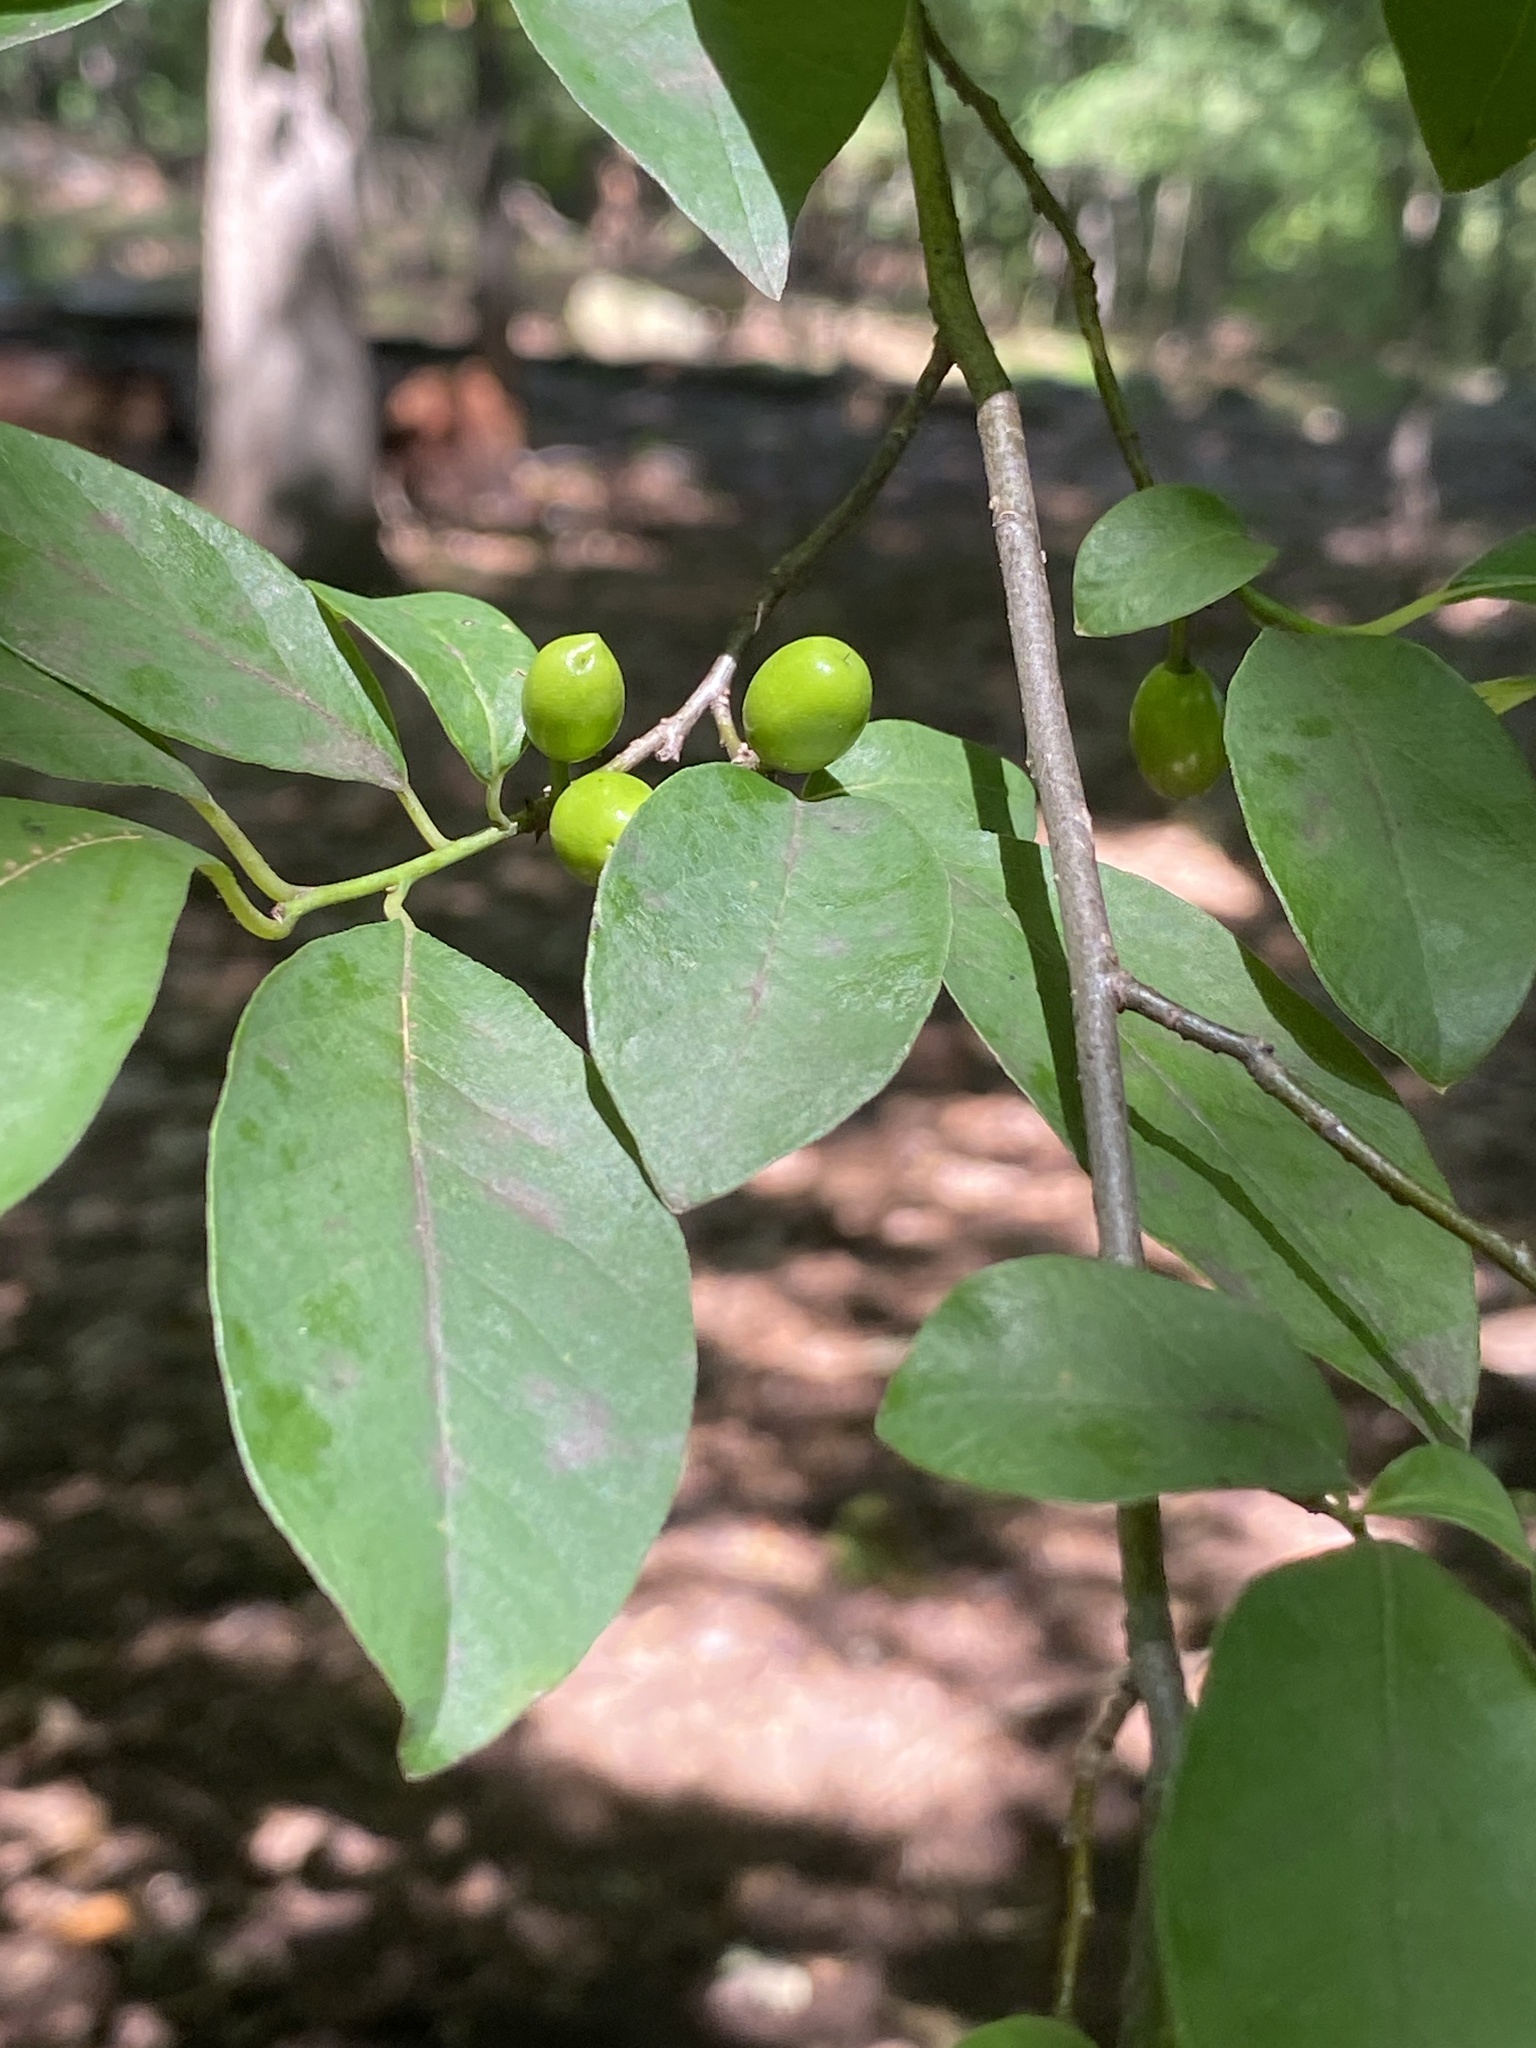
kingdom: Plantae
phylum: Tracheophyta
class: Magnoliopsida
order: Laurales
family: Lauraceae
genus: Lindera
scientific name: Lindera benzoin
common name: Spicebush
